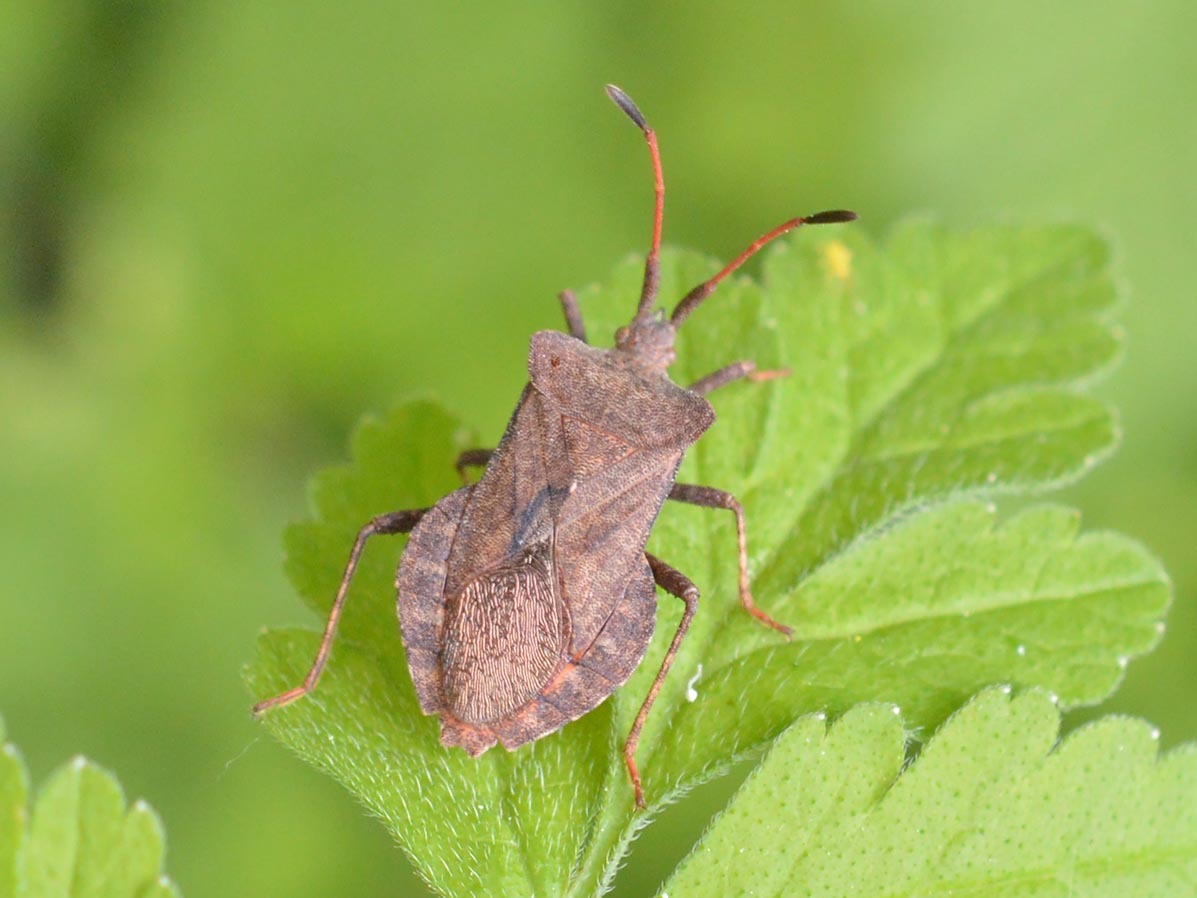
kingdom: Animalia
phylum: Arthropoda
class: Insecta
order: Hemiptera
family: Coreidae
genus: Coreus
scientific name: Coreus marginatus
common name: Dock bug
